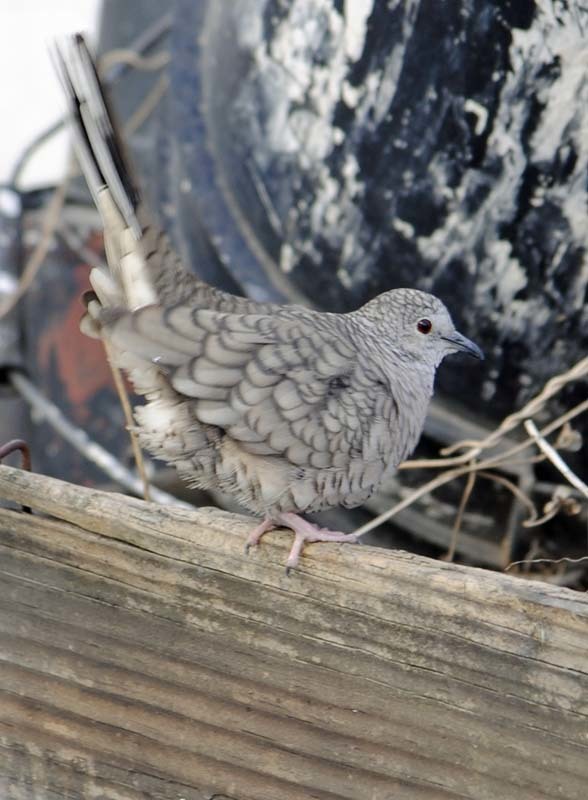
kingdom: Animalia
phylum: Chordata
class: Aves
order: Columbiformes
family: Columbidae
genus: Columbina
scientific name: Columbina inca
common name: Inca dove
